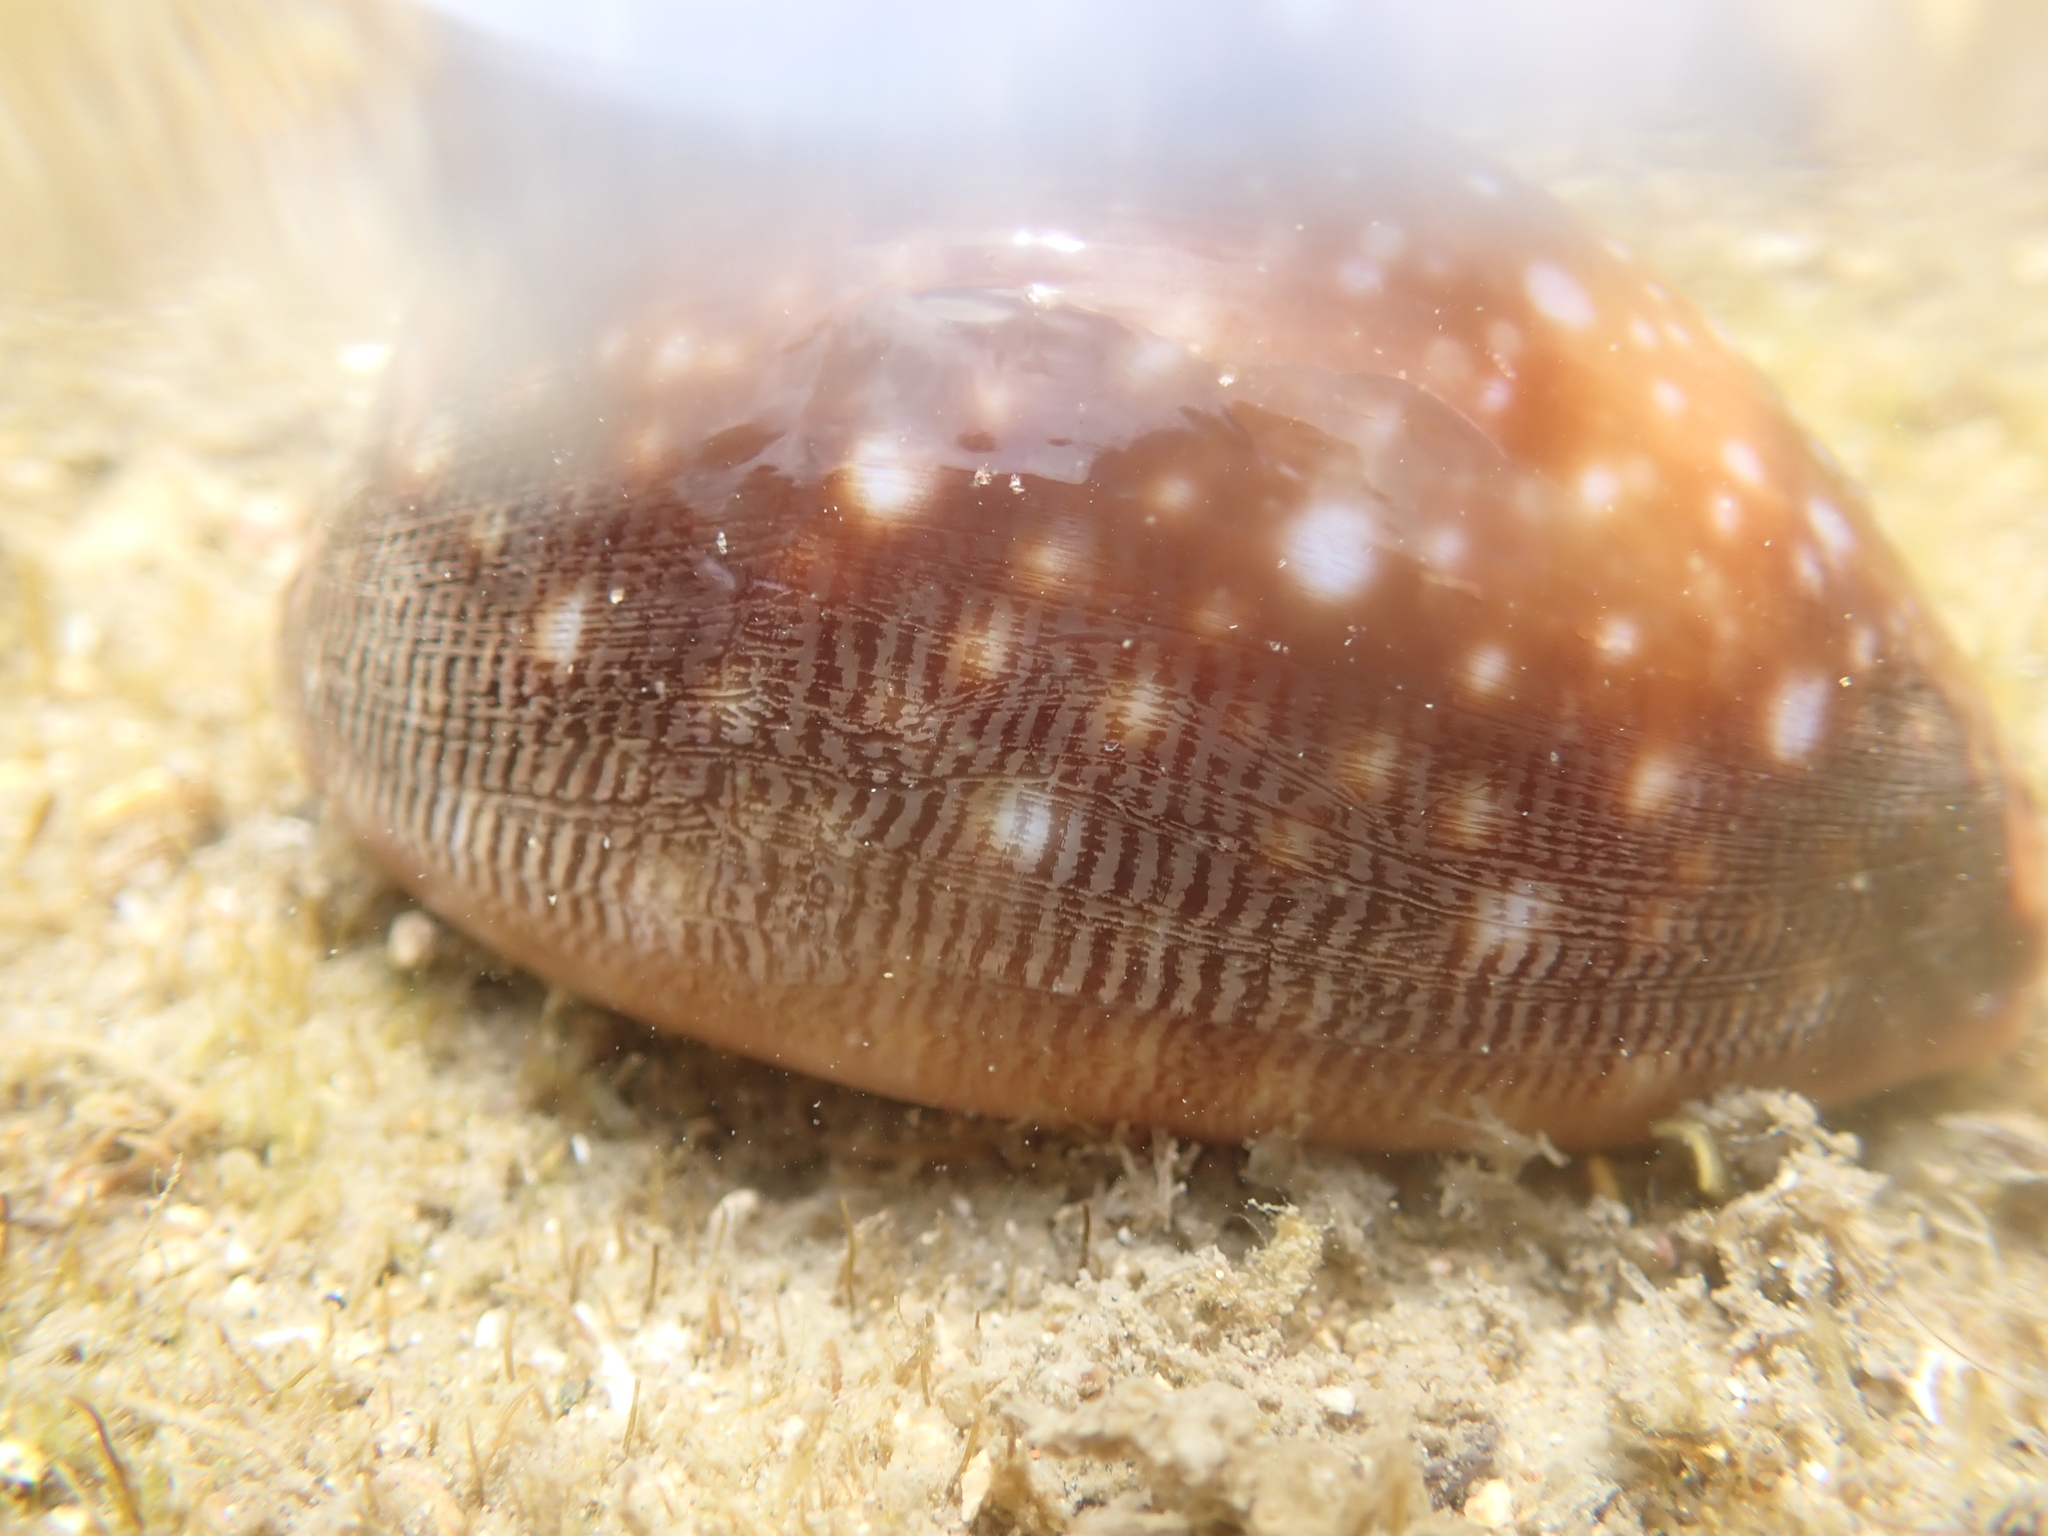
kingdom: Animalia
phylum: Mollusca
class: Gastropoda
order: Littorinimorpha
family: Cypraeidae
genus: Lyncina
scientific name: Lyncina vitellus
